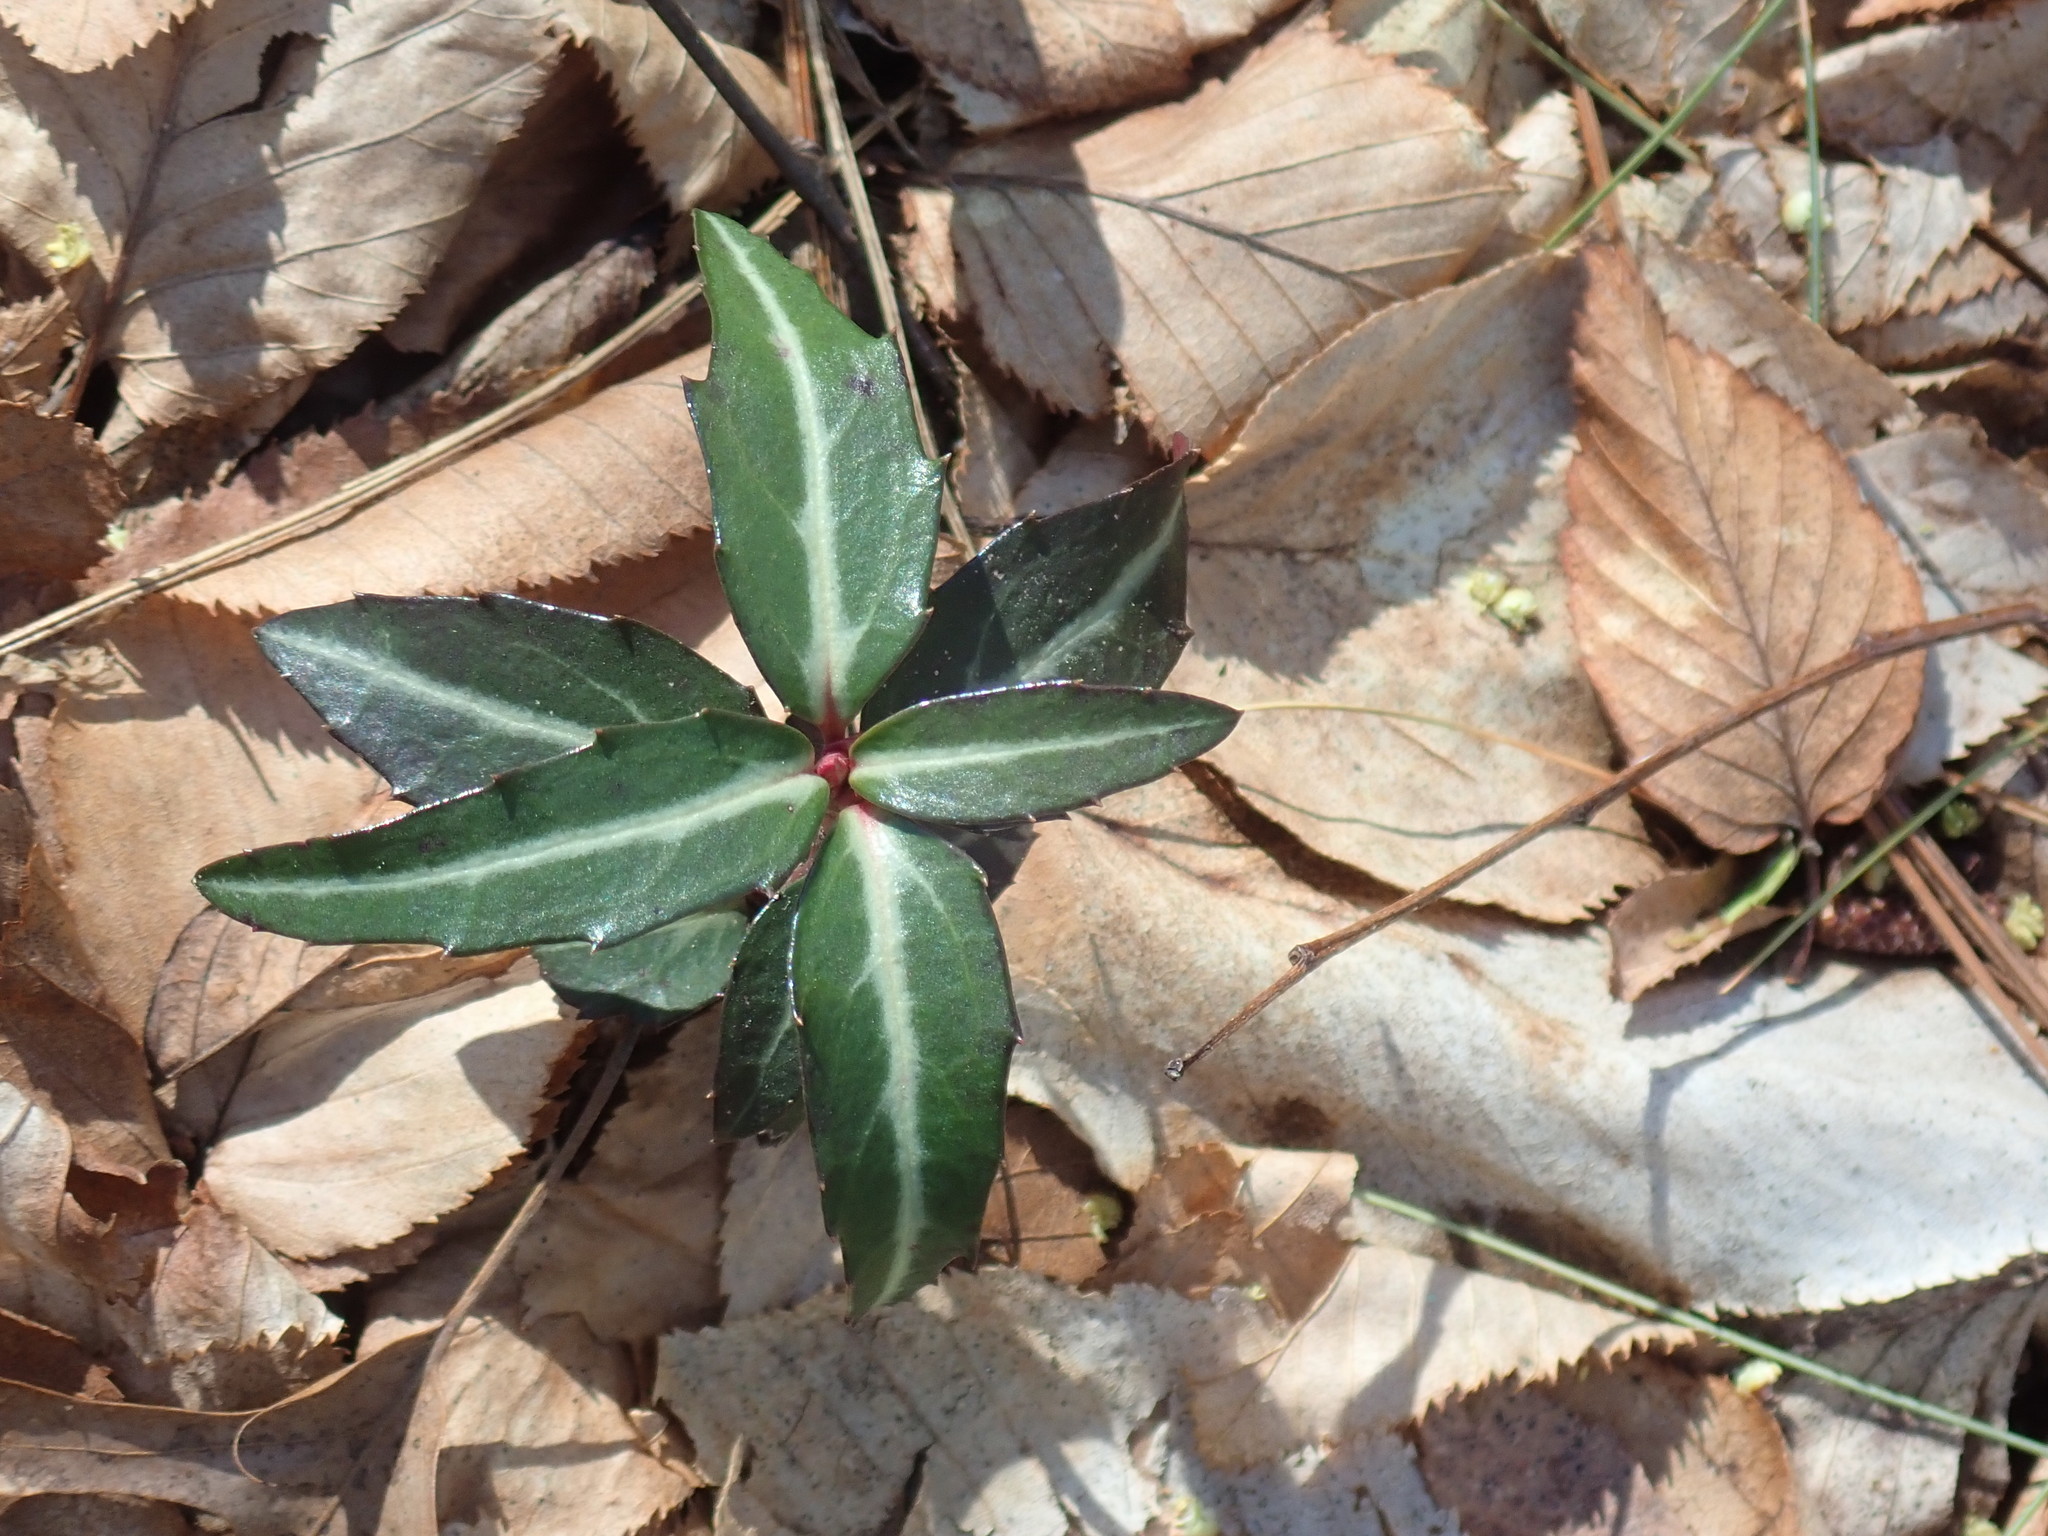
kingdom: Plantae
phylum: Tracheophyta
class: Magnoliopsida
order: Ericales
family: Ericaceae
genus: Chimaphila
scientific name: Chimaphila maculata
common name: Spotted pipsissewa
